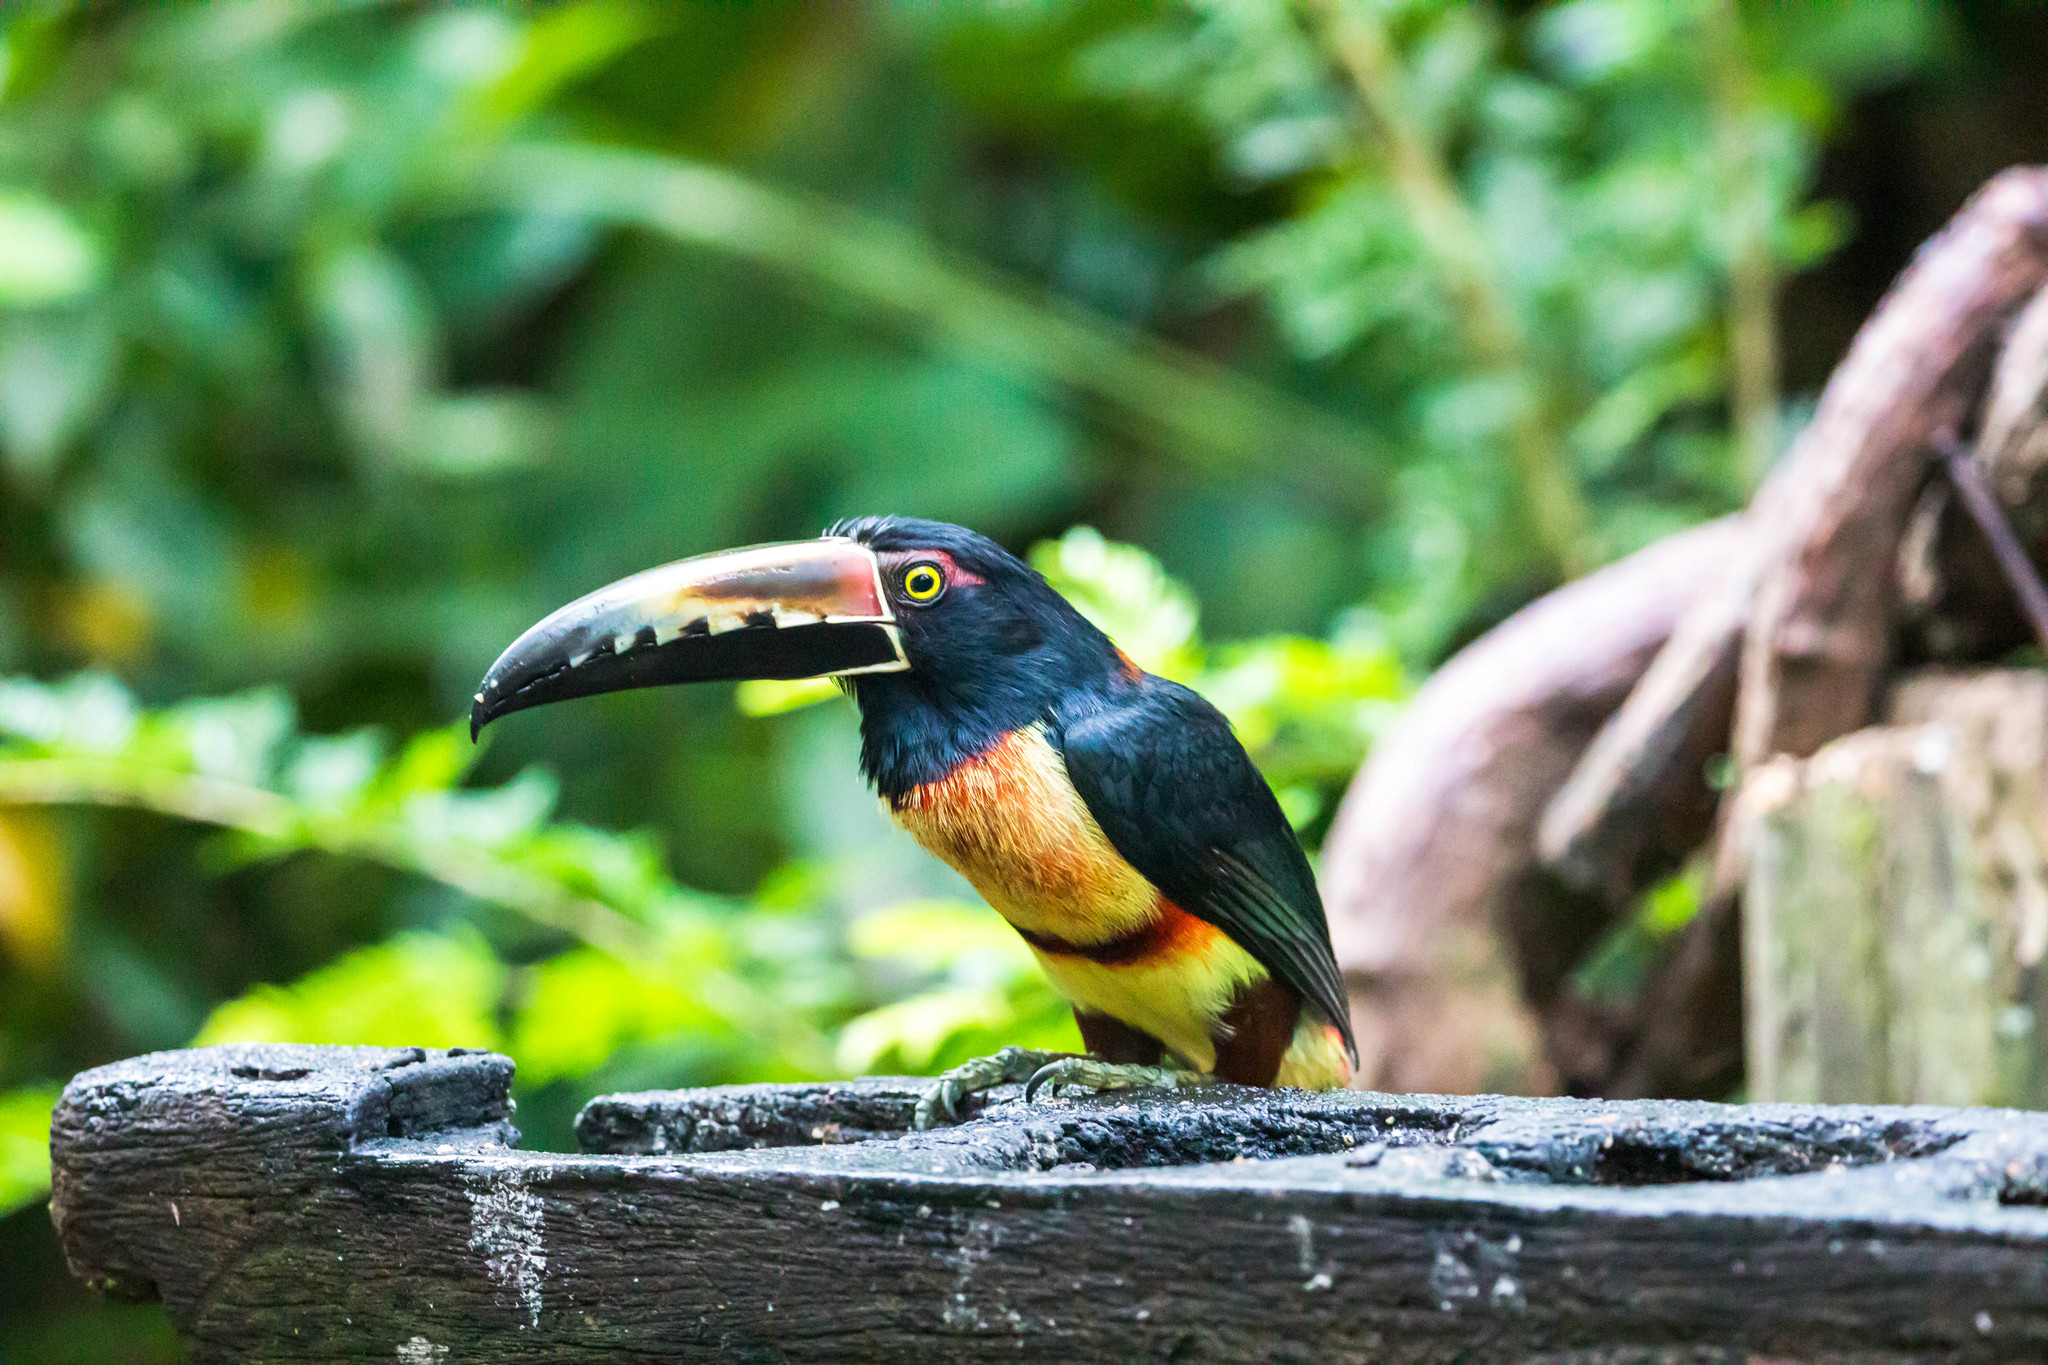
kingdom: Animalia
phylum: Chordata
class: Aves
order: Piciformes
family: Ramphastidae
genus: Pteroglossus
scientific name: Pteroglossus torquatus
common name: Collared aracari
